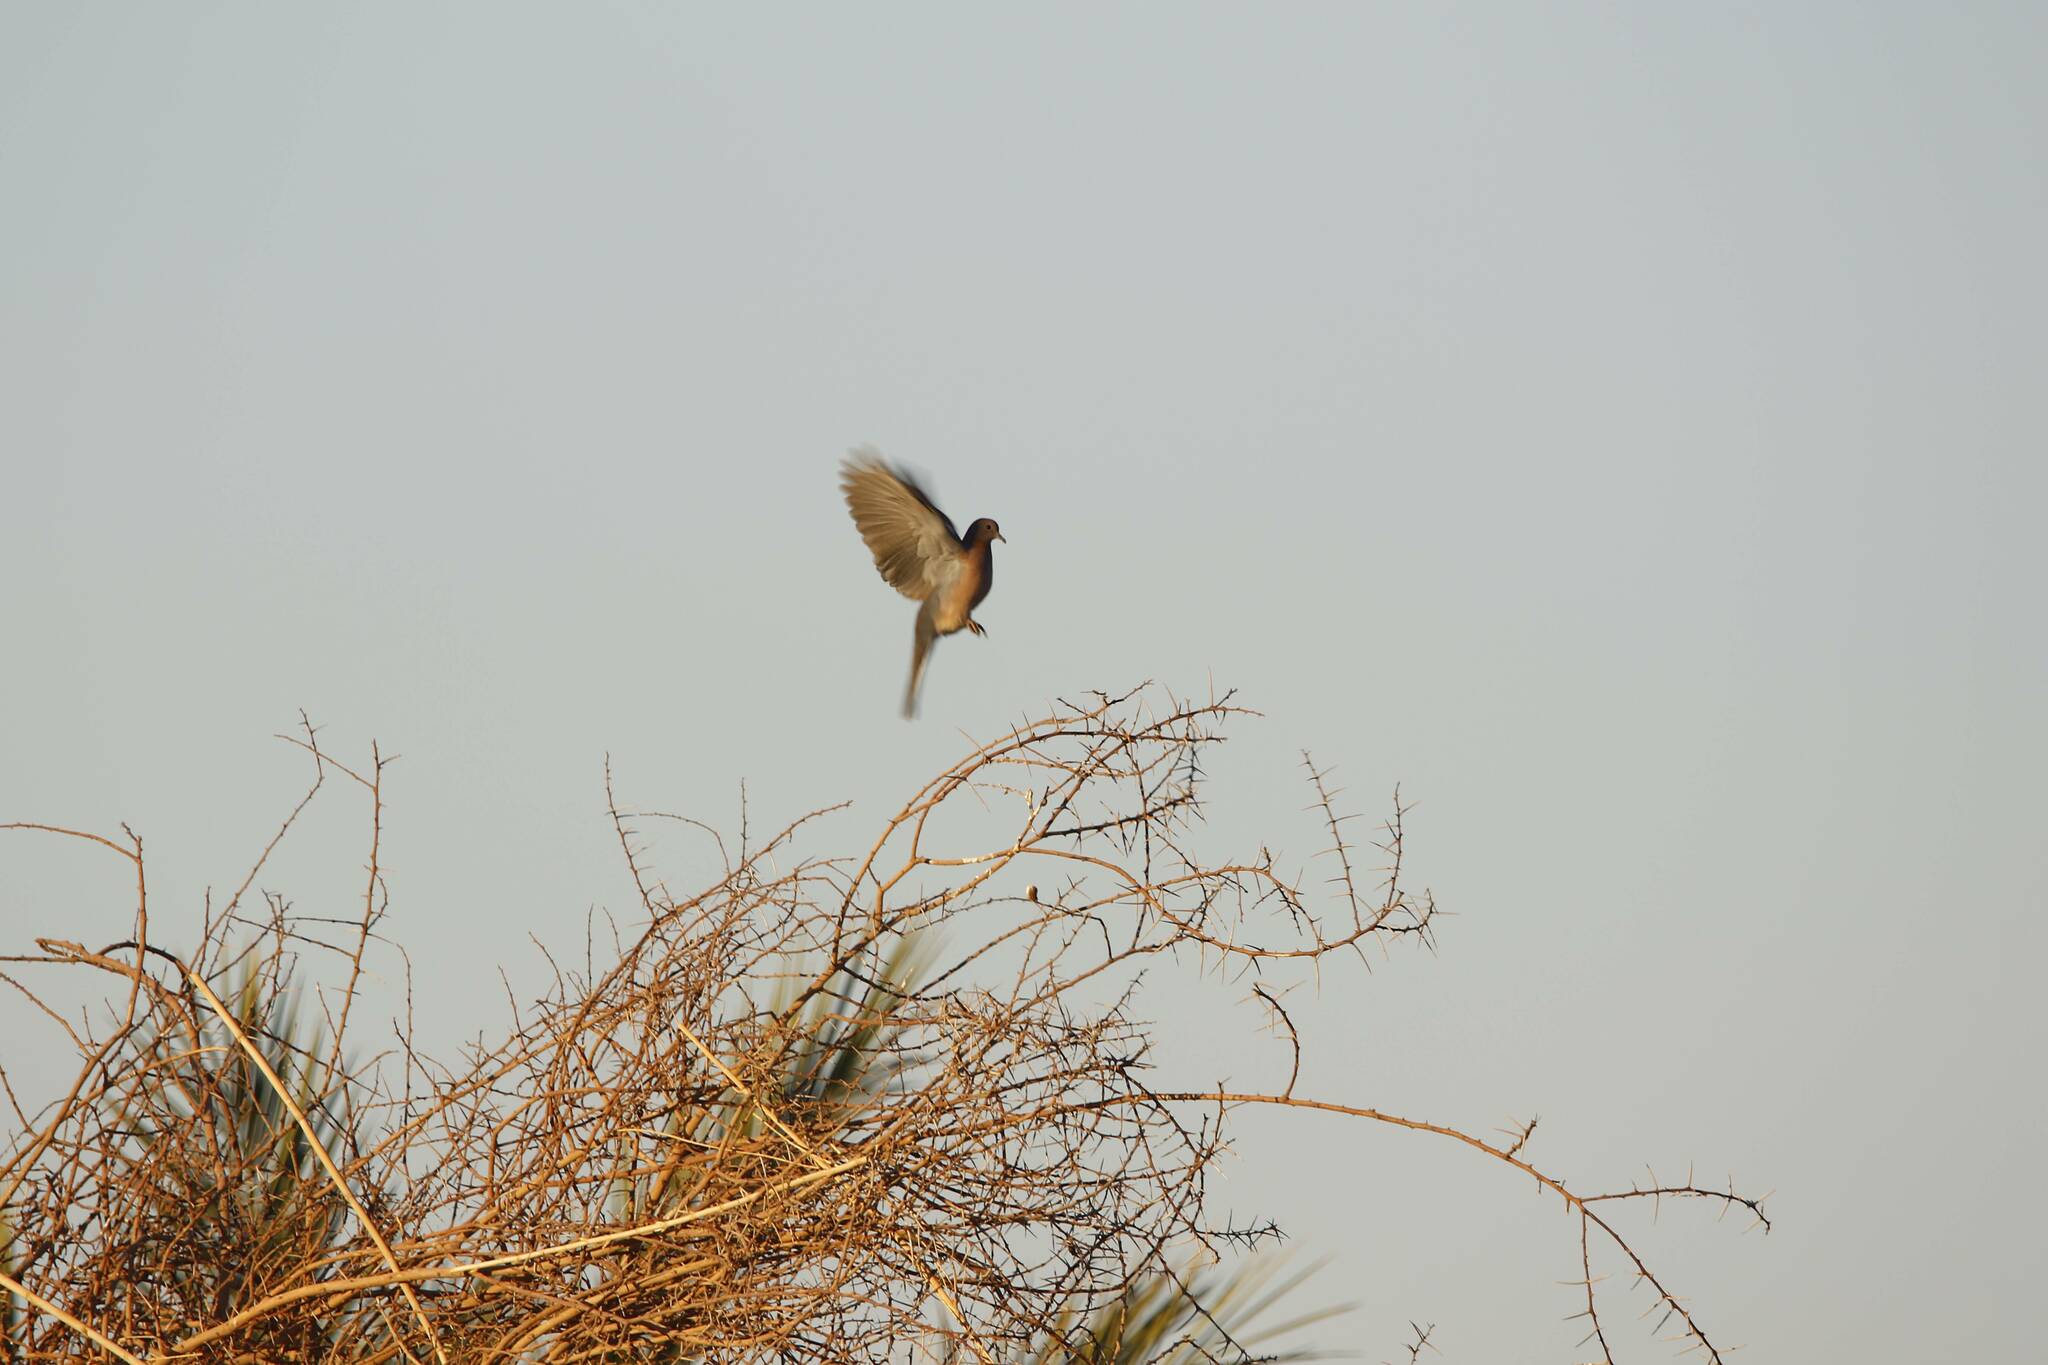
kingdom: Animalia
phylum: Chordata
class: Aves
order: Columbiformes
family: Columbidae
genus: Spilopelia
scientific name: Spilopelia senegalensis
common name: Laughing dove
